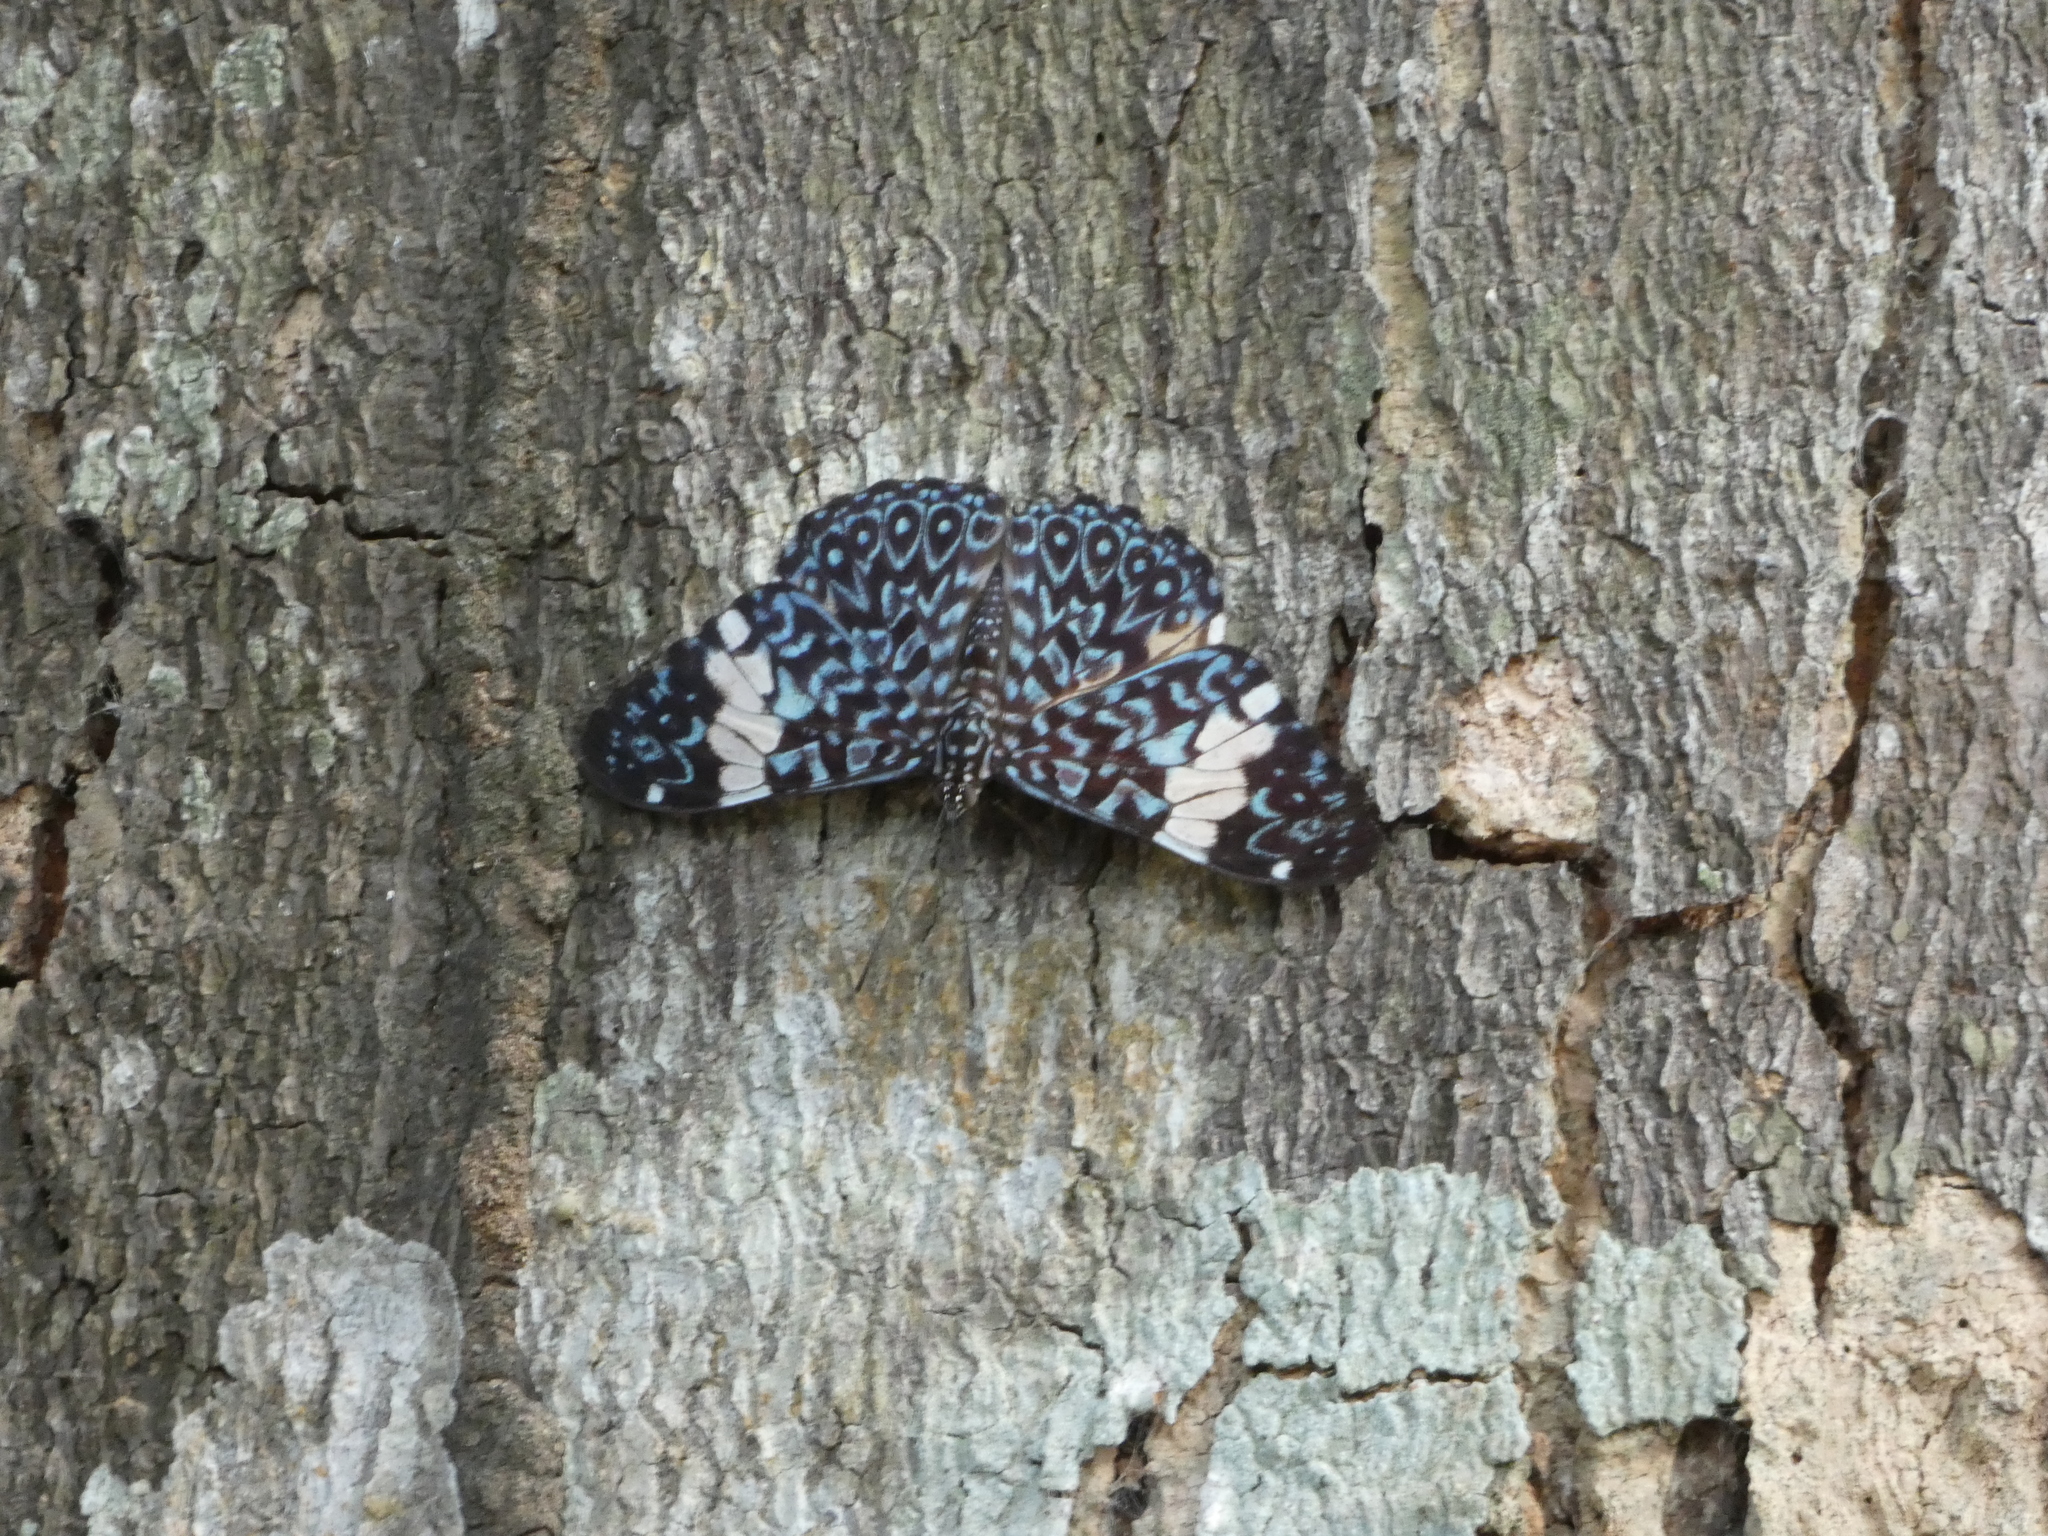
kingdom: Animalia
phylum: Arthropoda
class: Insecta
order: Lepidoptera
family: Nymphalidae
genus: Hamadryas
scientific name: Hamadryas amphinome
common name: Red cracker
